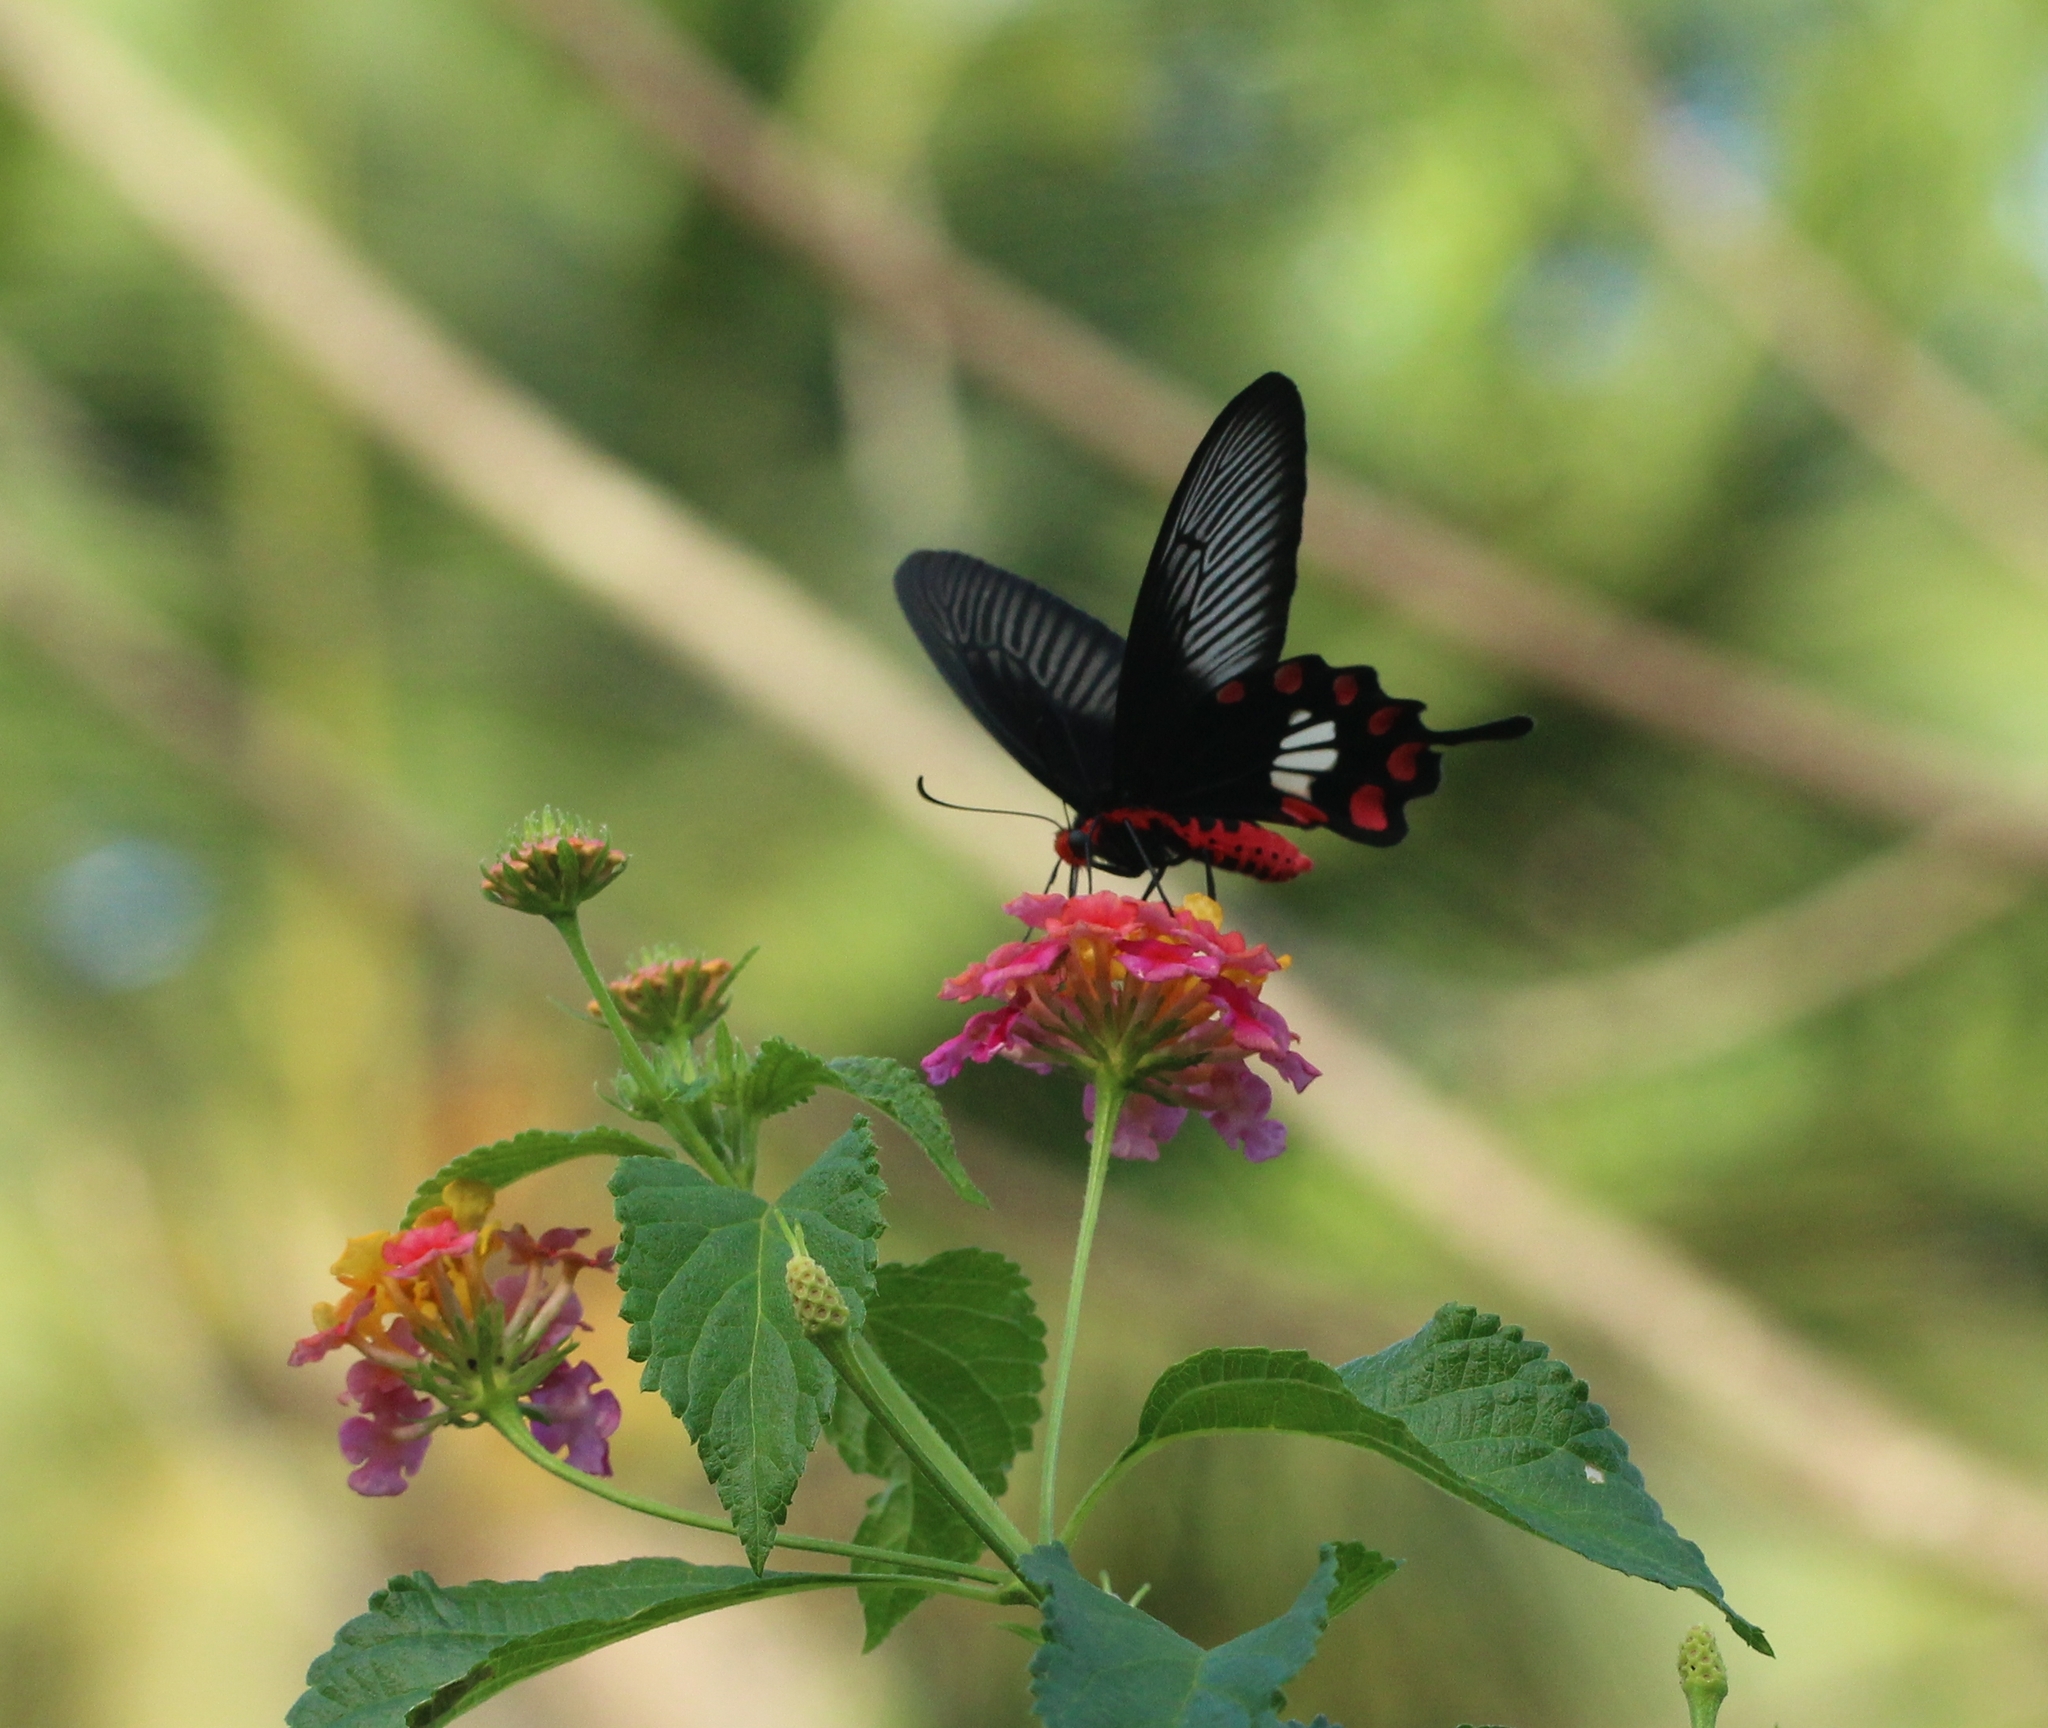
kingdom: Animalia
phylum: Arthropoda
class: Insecta
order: Lepidoptera
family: Papilionidae
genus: Pachliopta
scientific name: Pachliopta aristolochiae
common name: Common rose
